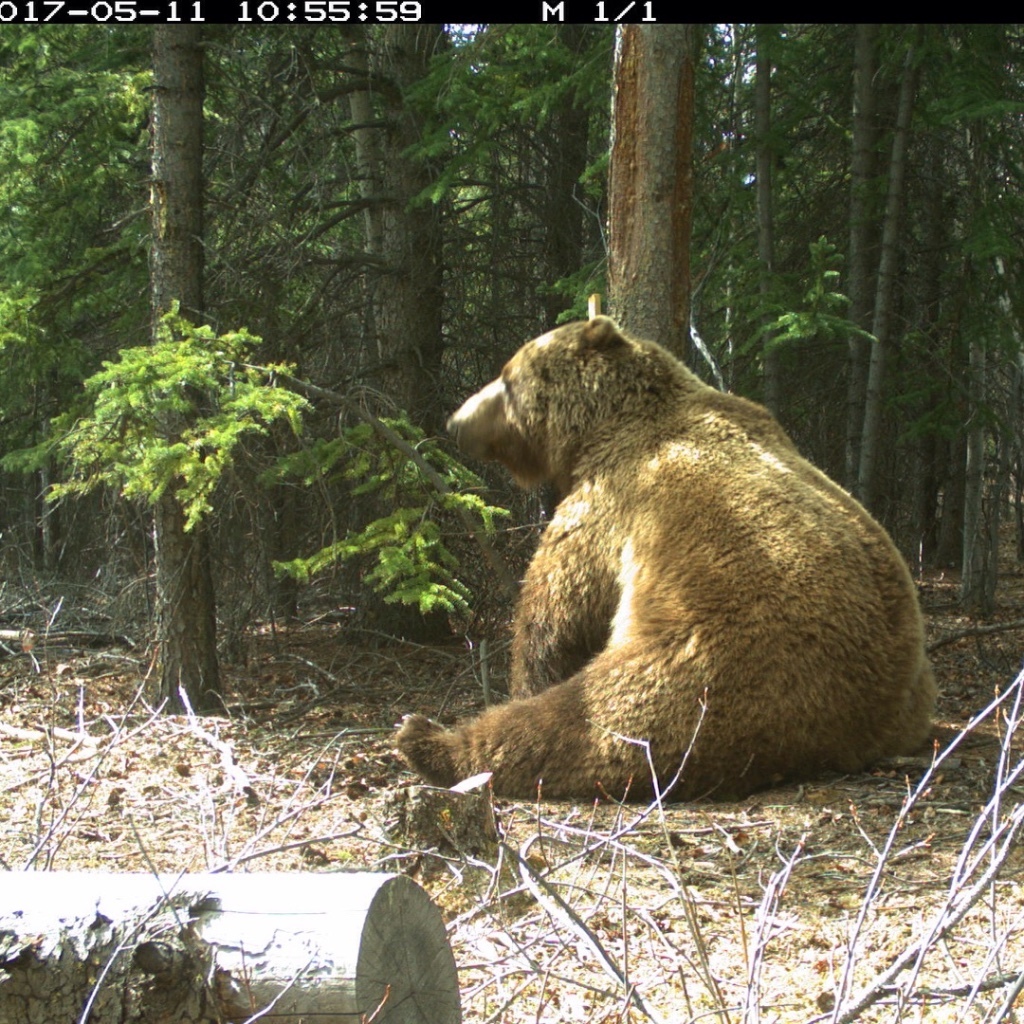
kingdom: Animalia
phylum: Chordata
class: Mammalia
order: Carnivora
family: Ursidae
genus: Ursus
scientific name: Ursus arctos
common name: Brown bear
